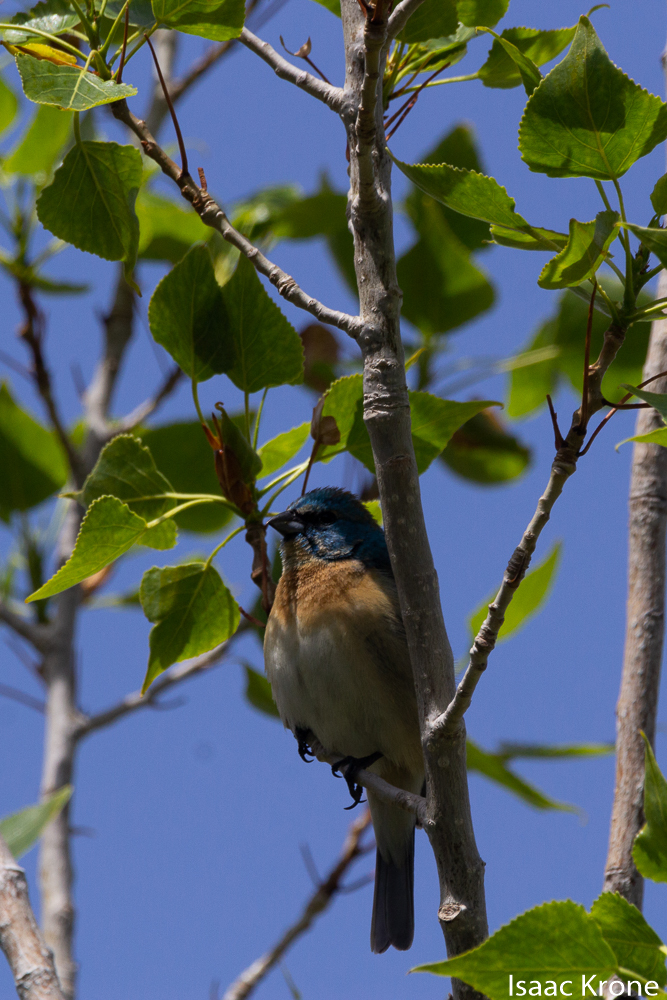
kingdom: Animalia
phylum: Chordata
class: Aves
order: Passeriformes
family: Cardinalidae
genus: Passerina
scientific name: Passerina amoena
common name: Lazuli bunting
